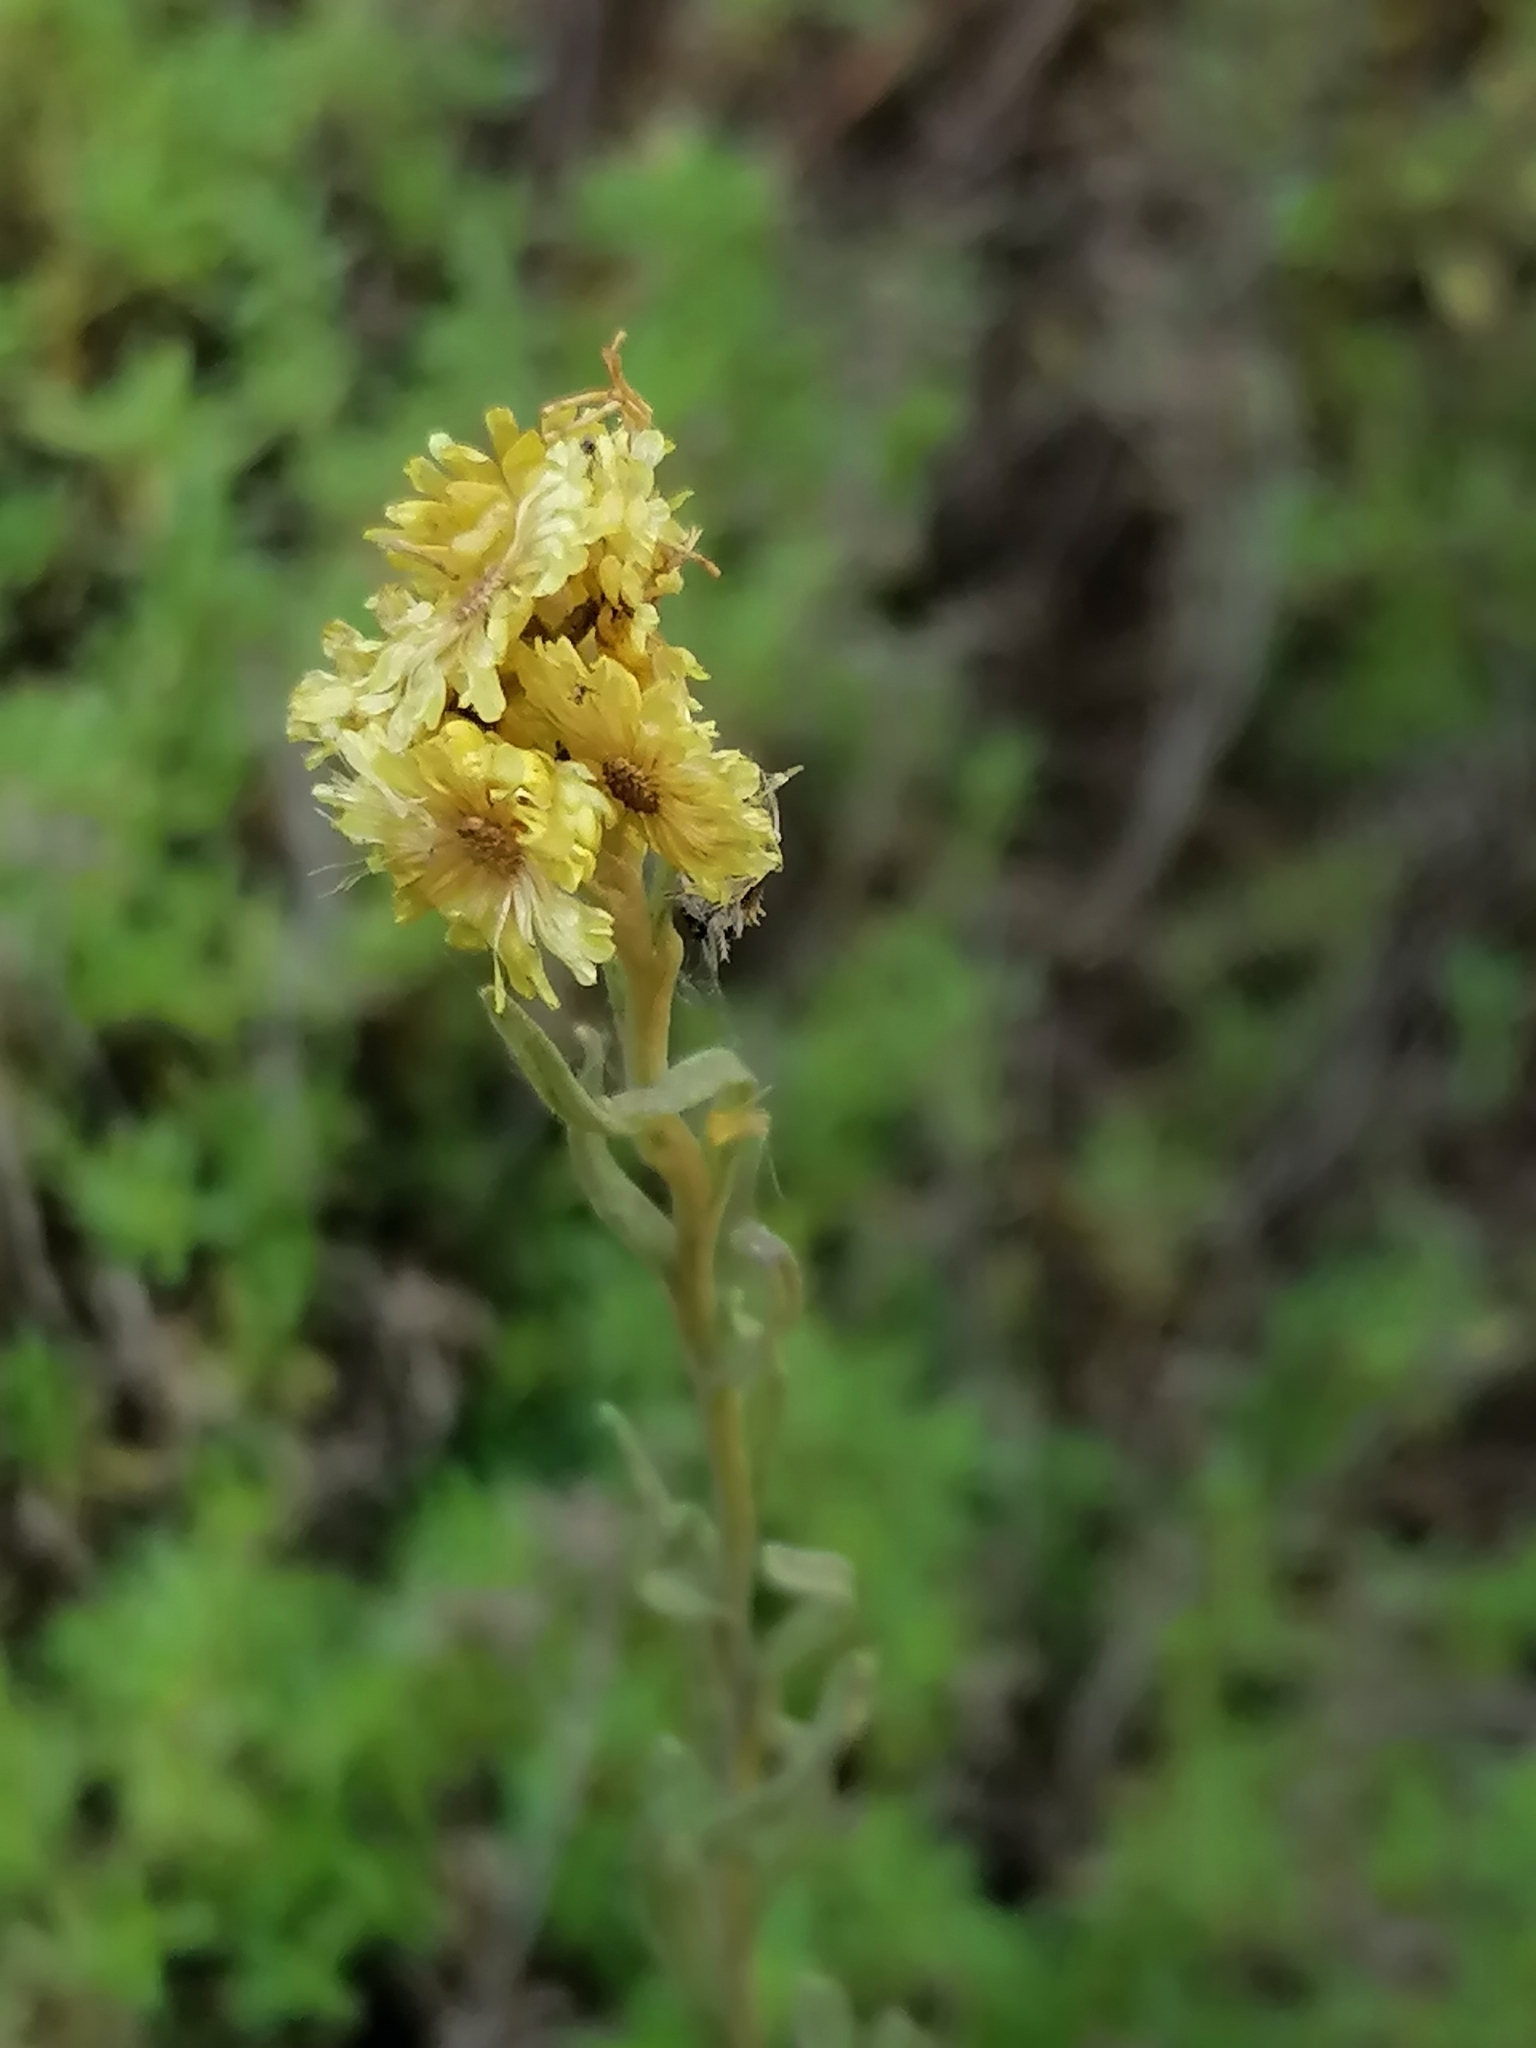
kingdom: Plantae
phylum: Tracheophyta
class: Magnoliopsida
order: Asterales
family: Asteraceae
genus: Helichrysum
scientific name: Helichrysum arenarium
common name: Strawflower
